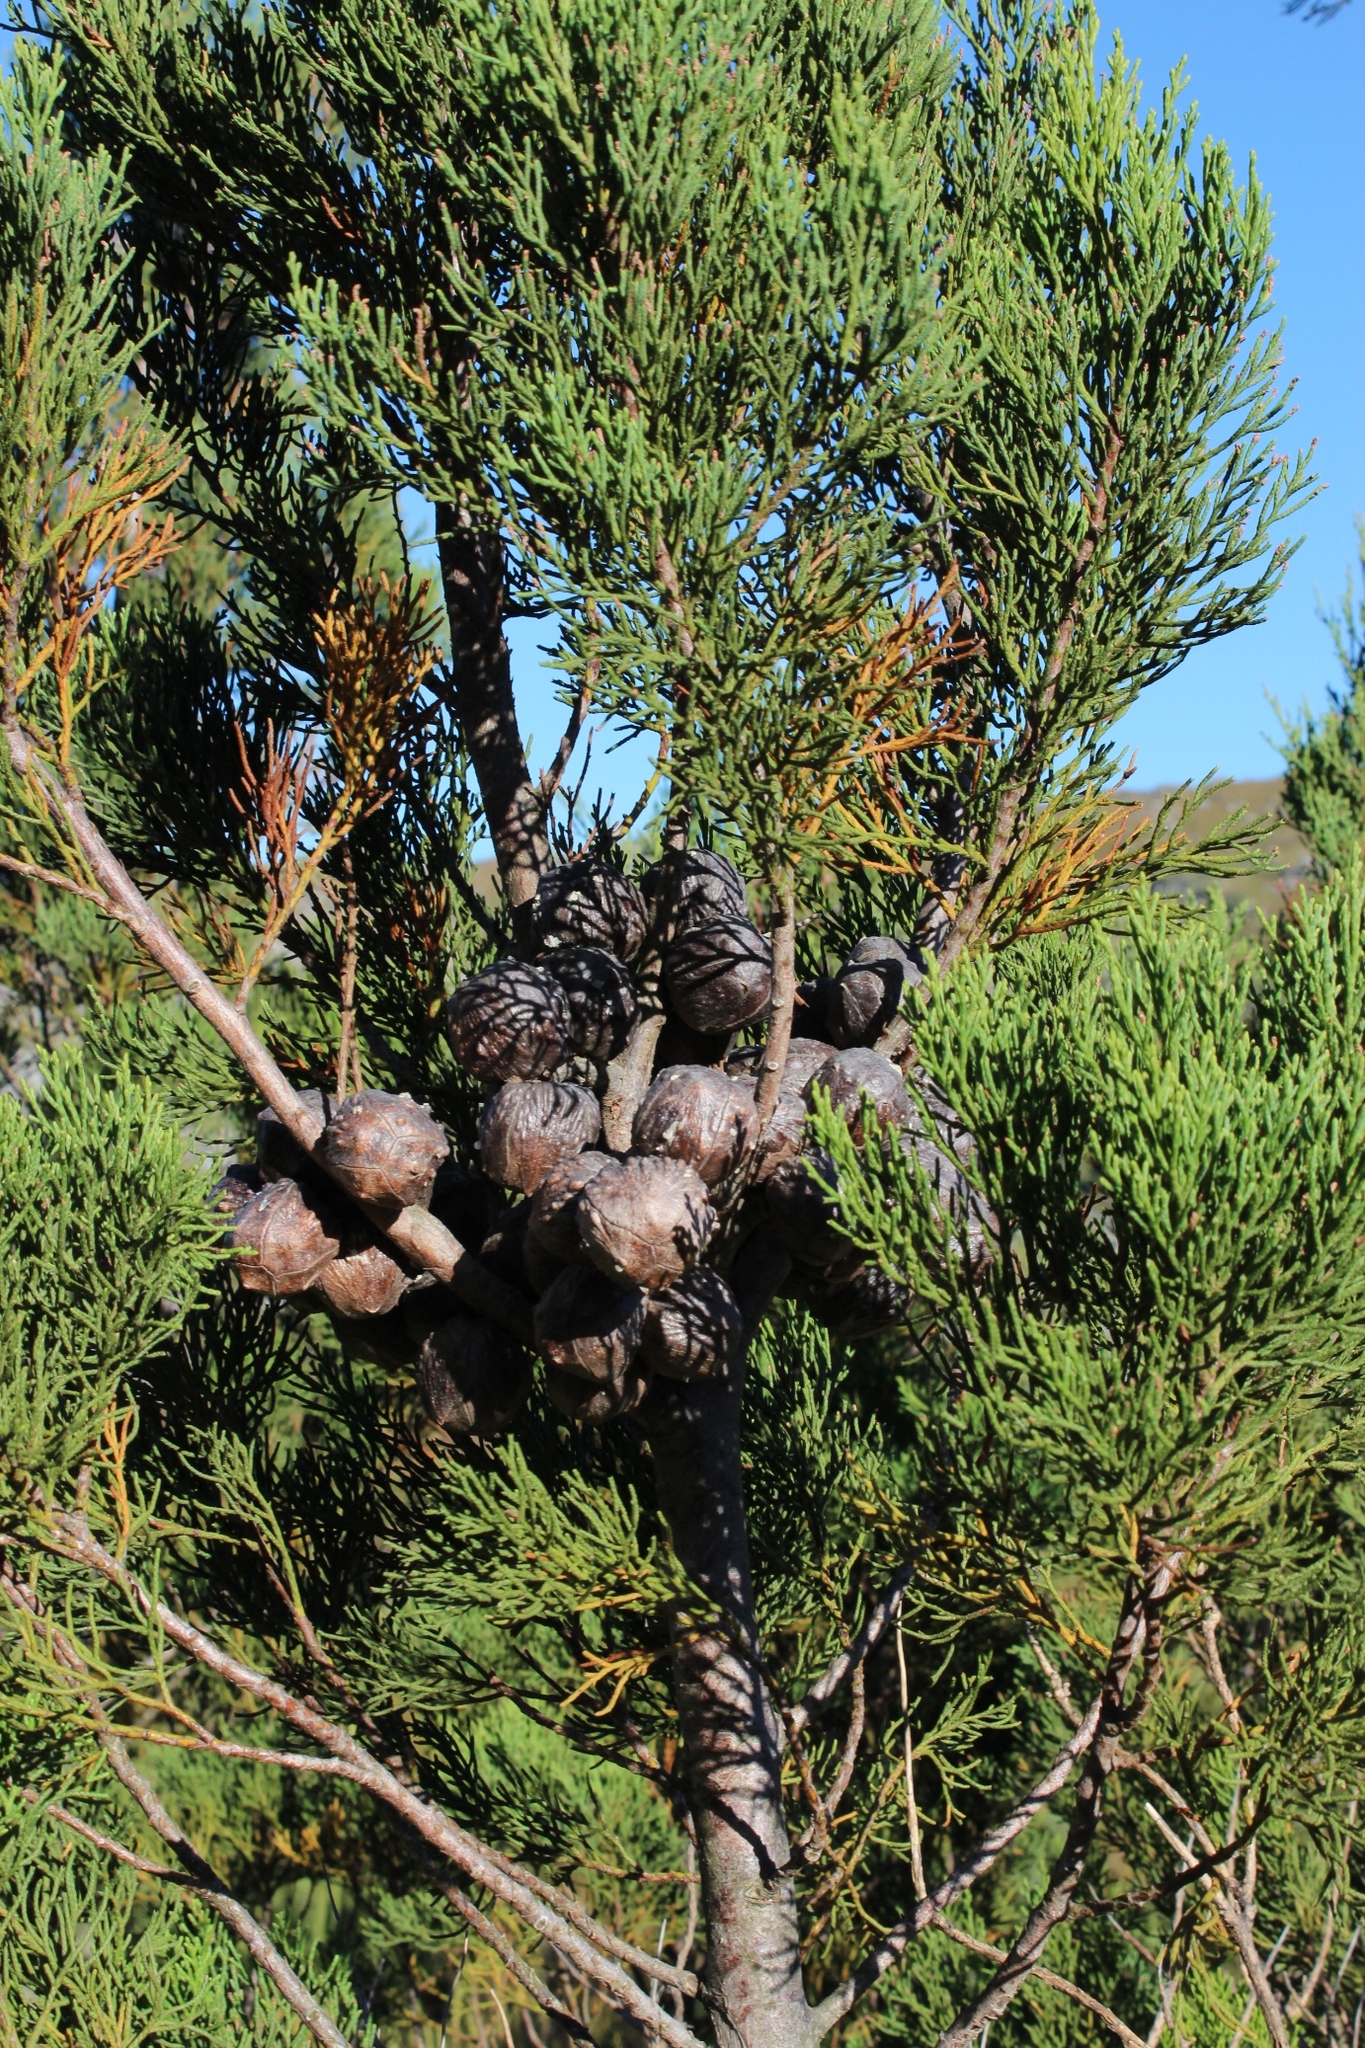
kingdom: Plantae
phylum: Tracheophyta
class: Pinopsida
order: Pinales
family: Cupressaceae
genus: Widdringtonia
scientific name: Widdringtonia nodiflora
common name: Cape cypress
